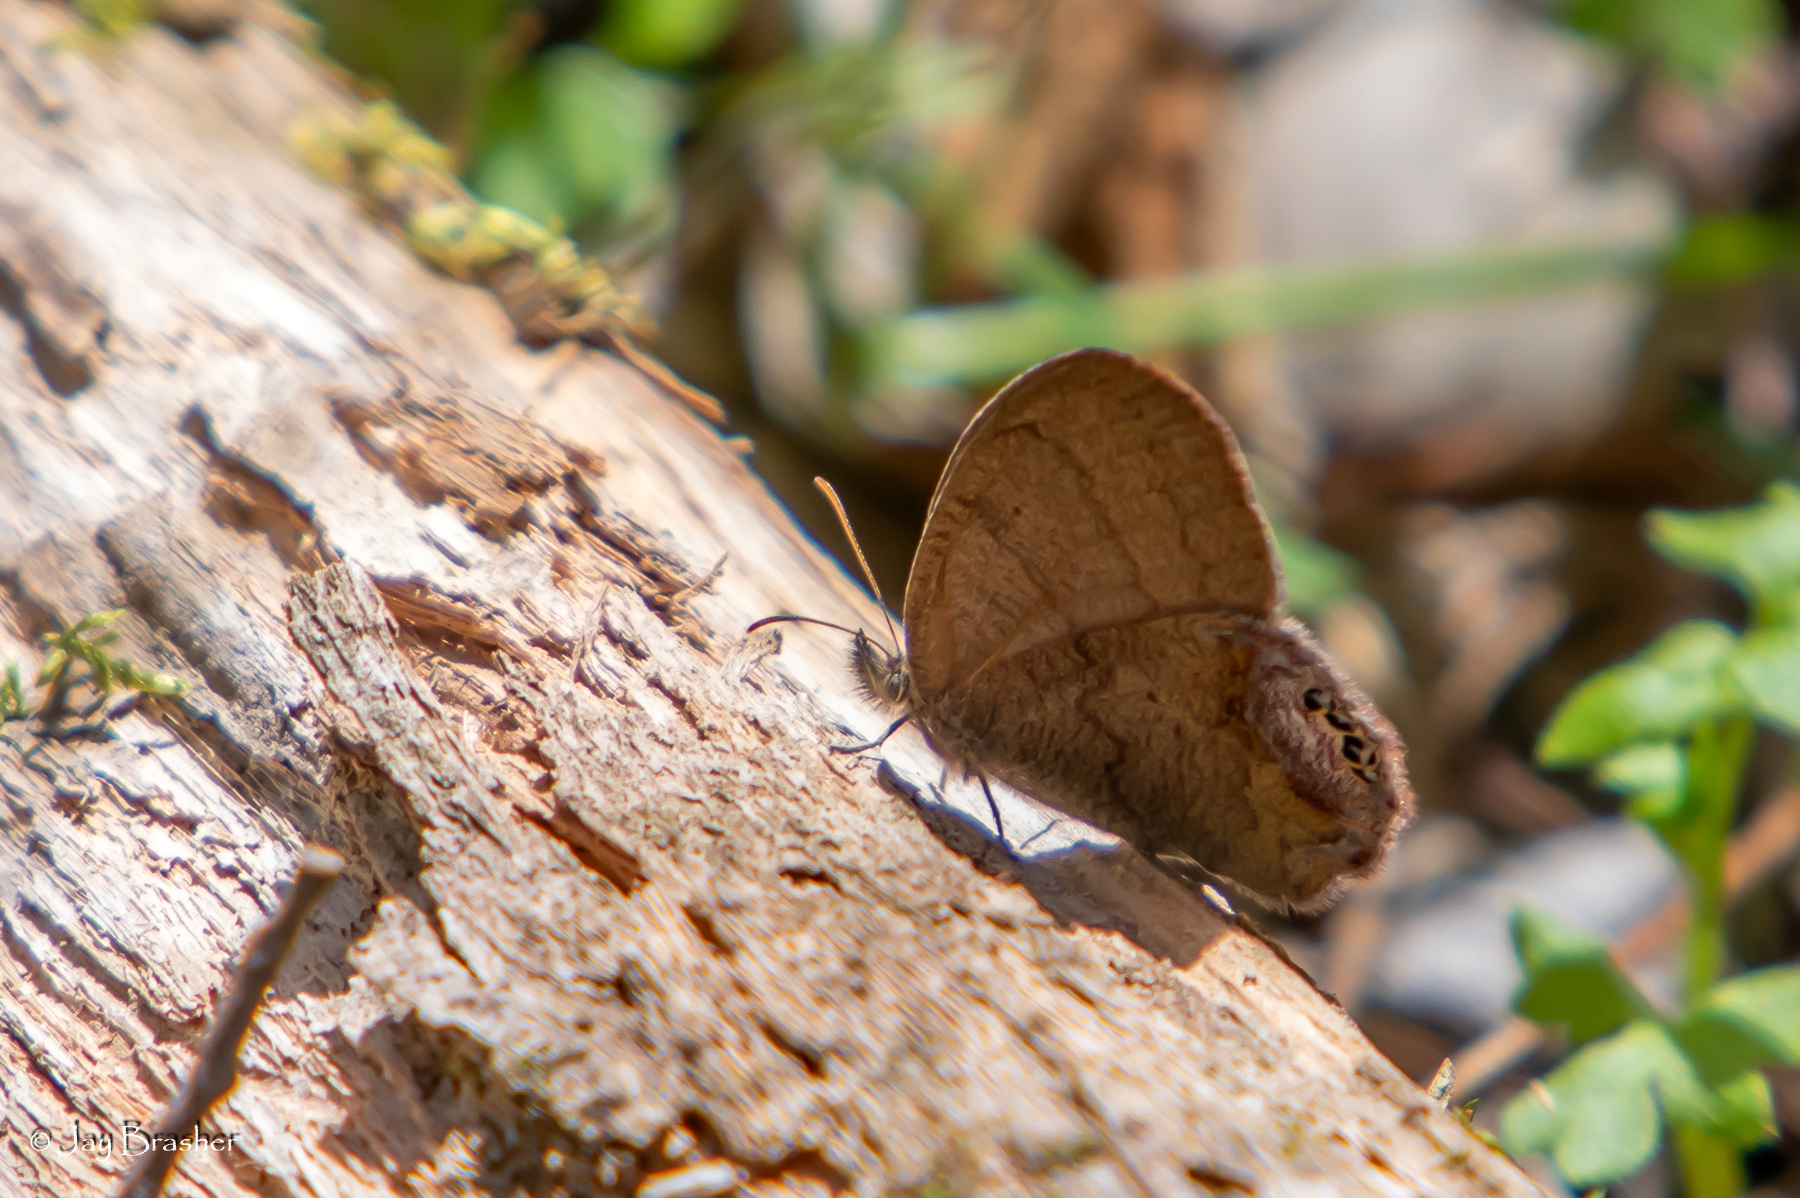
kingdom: Animalia
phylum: Arthropoda
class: Insecta
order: Lepidoptera
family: Nymphalidae
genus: Euptychia
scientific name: Euptychia cornelius
